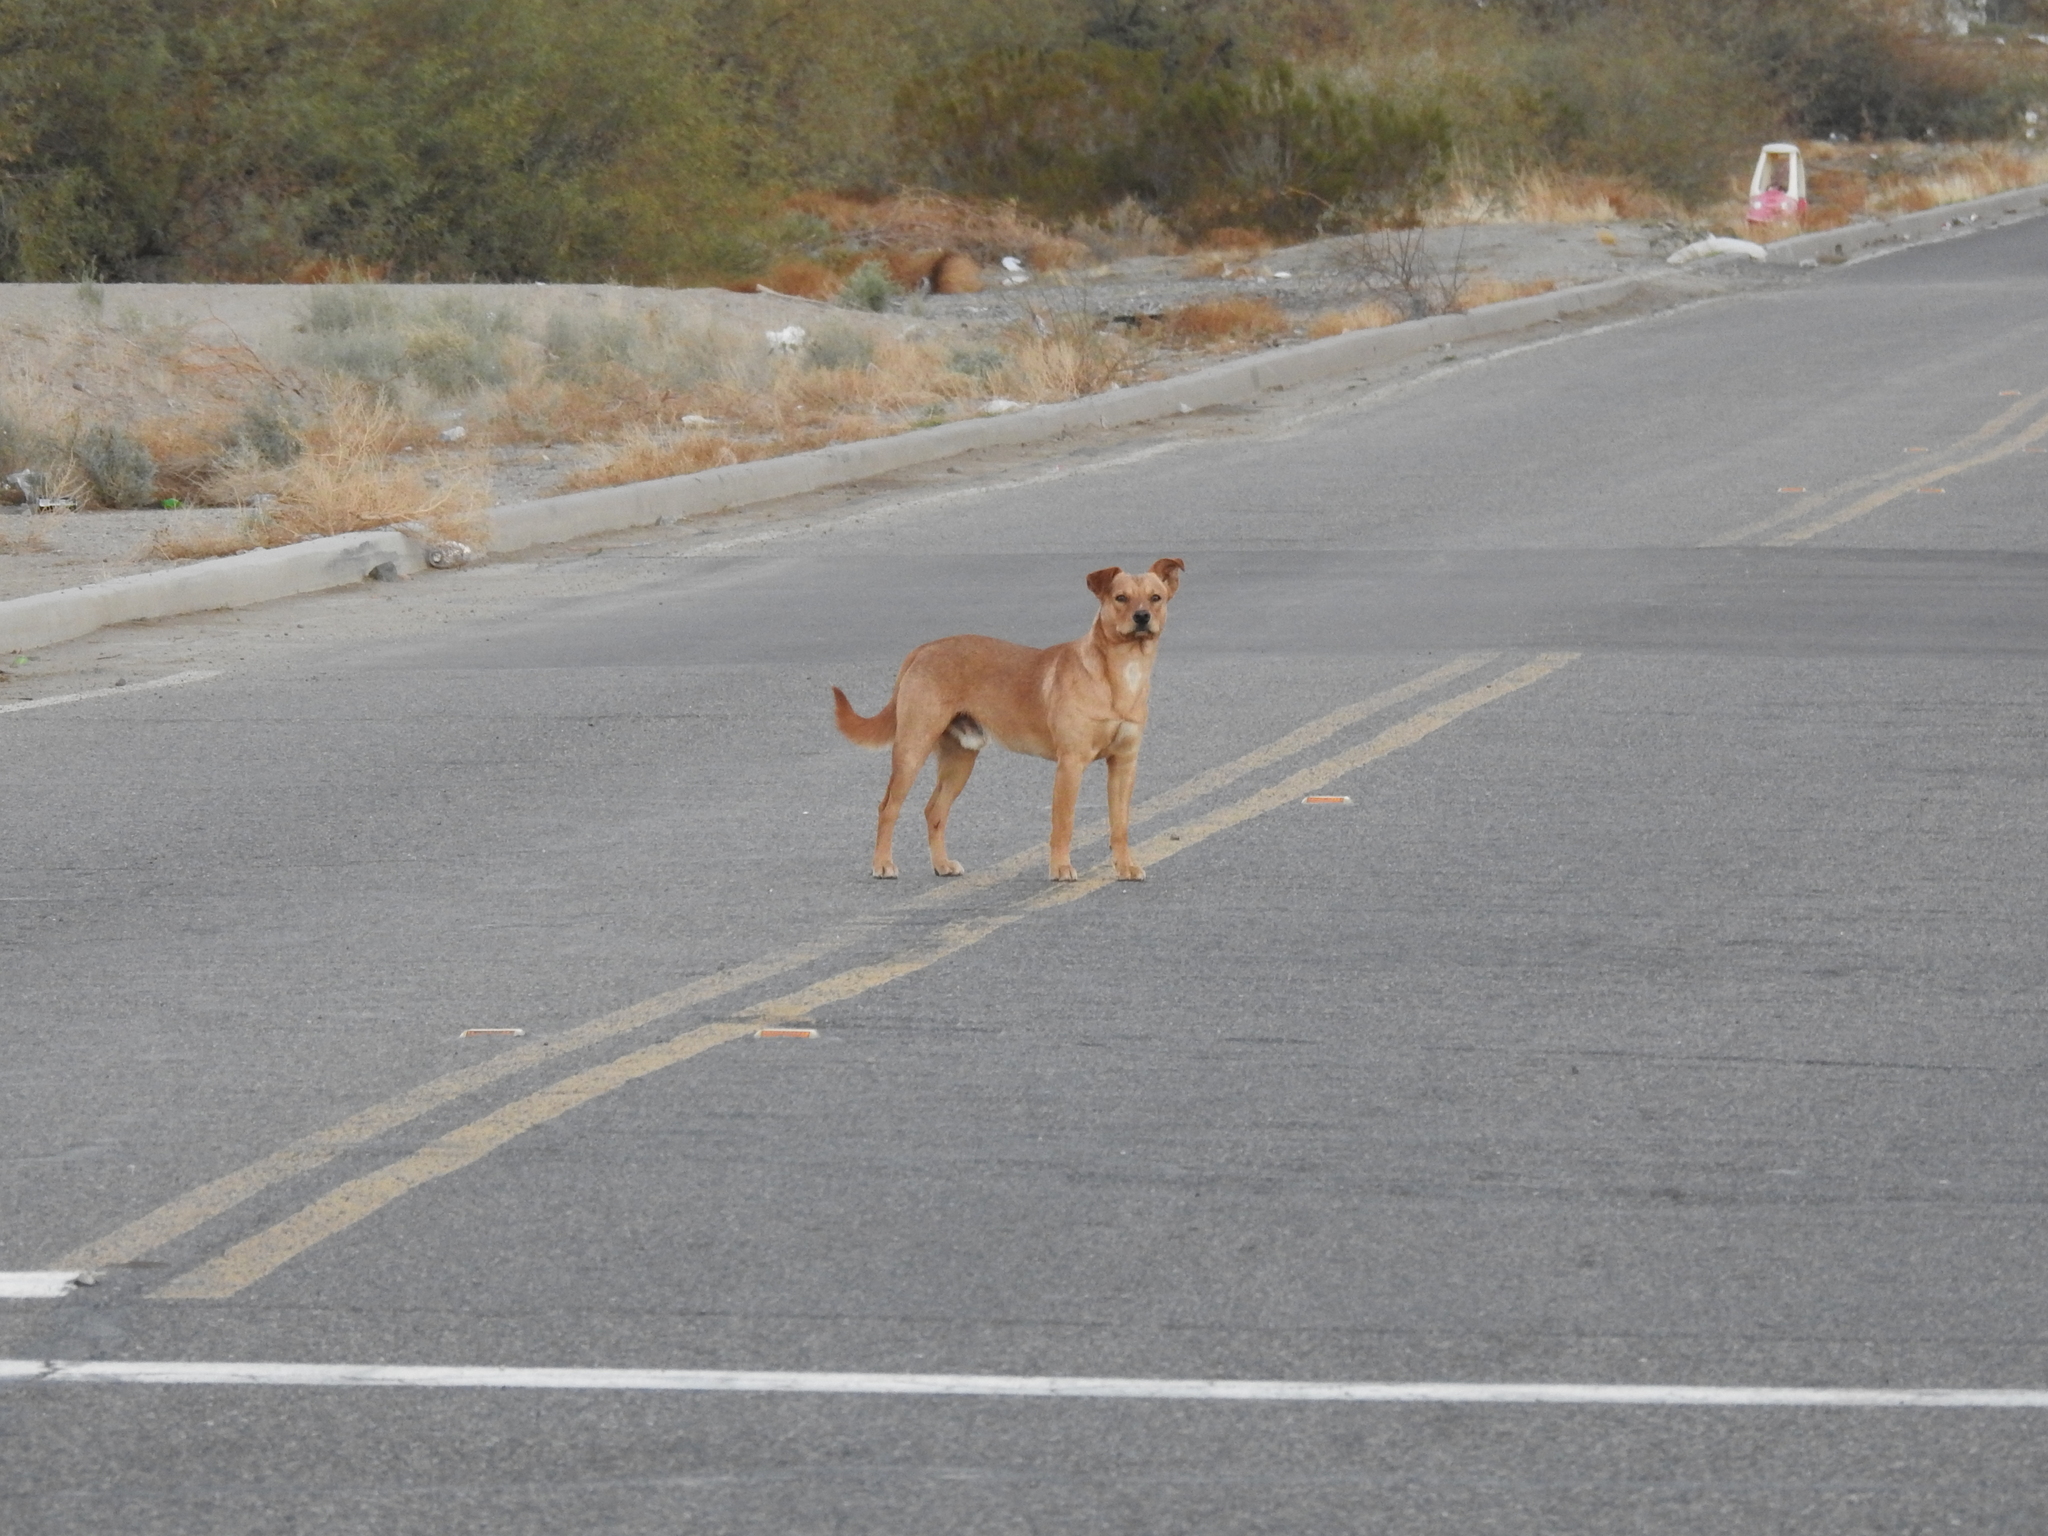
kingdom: Animalia
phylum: Chordata
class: Mammalia
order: Carnivora
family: Canidae
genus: Canis
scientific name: Canis lupus
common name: Gray wolf
